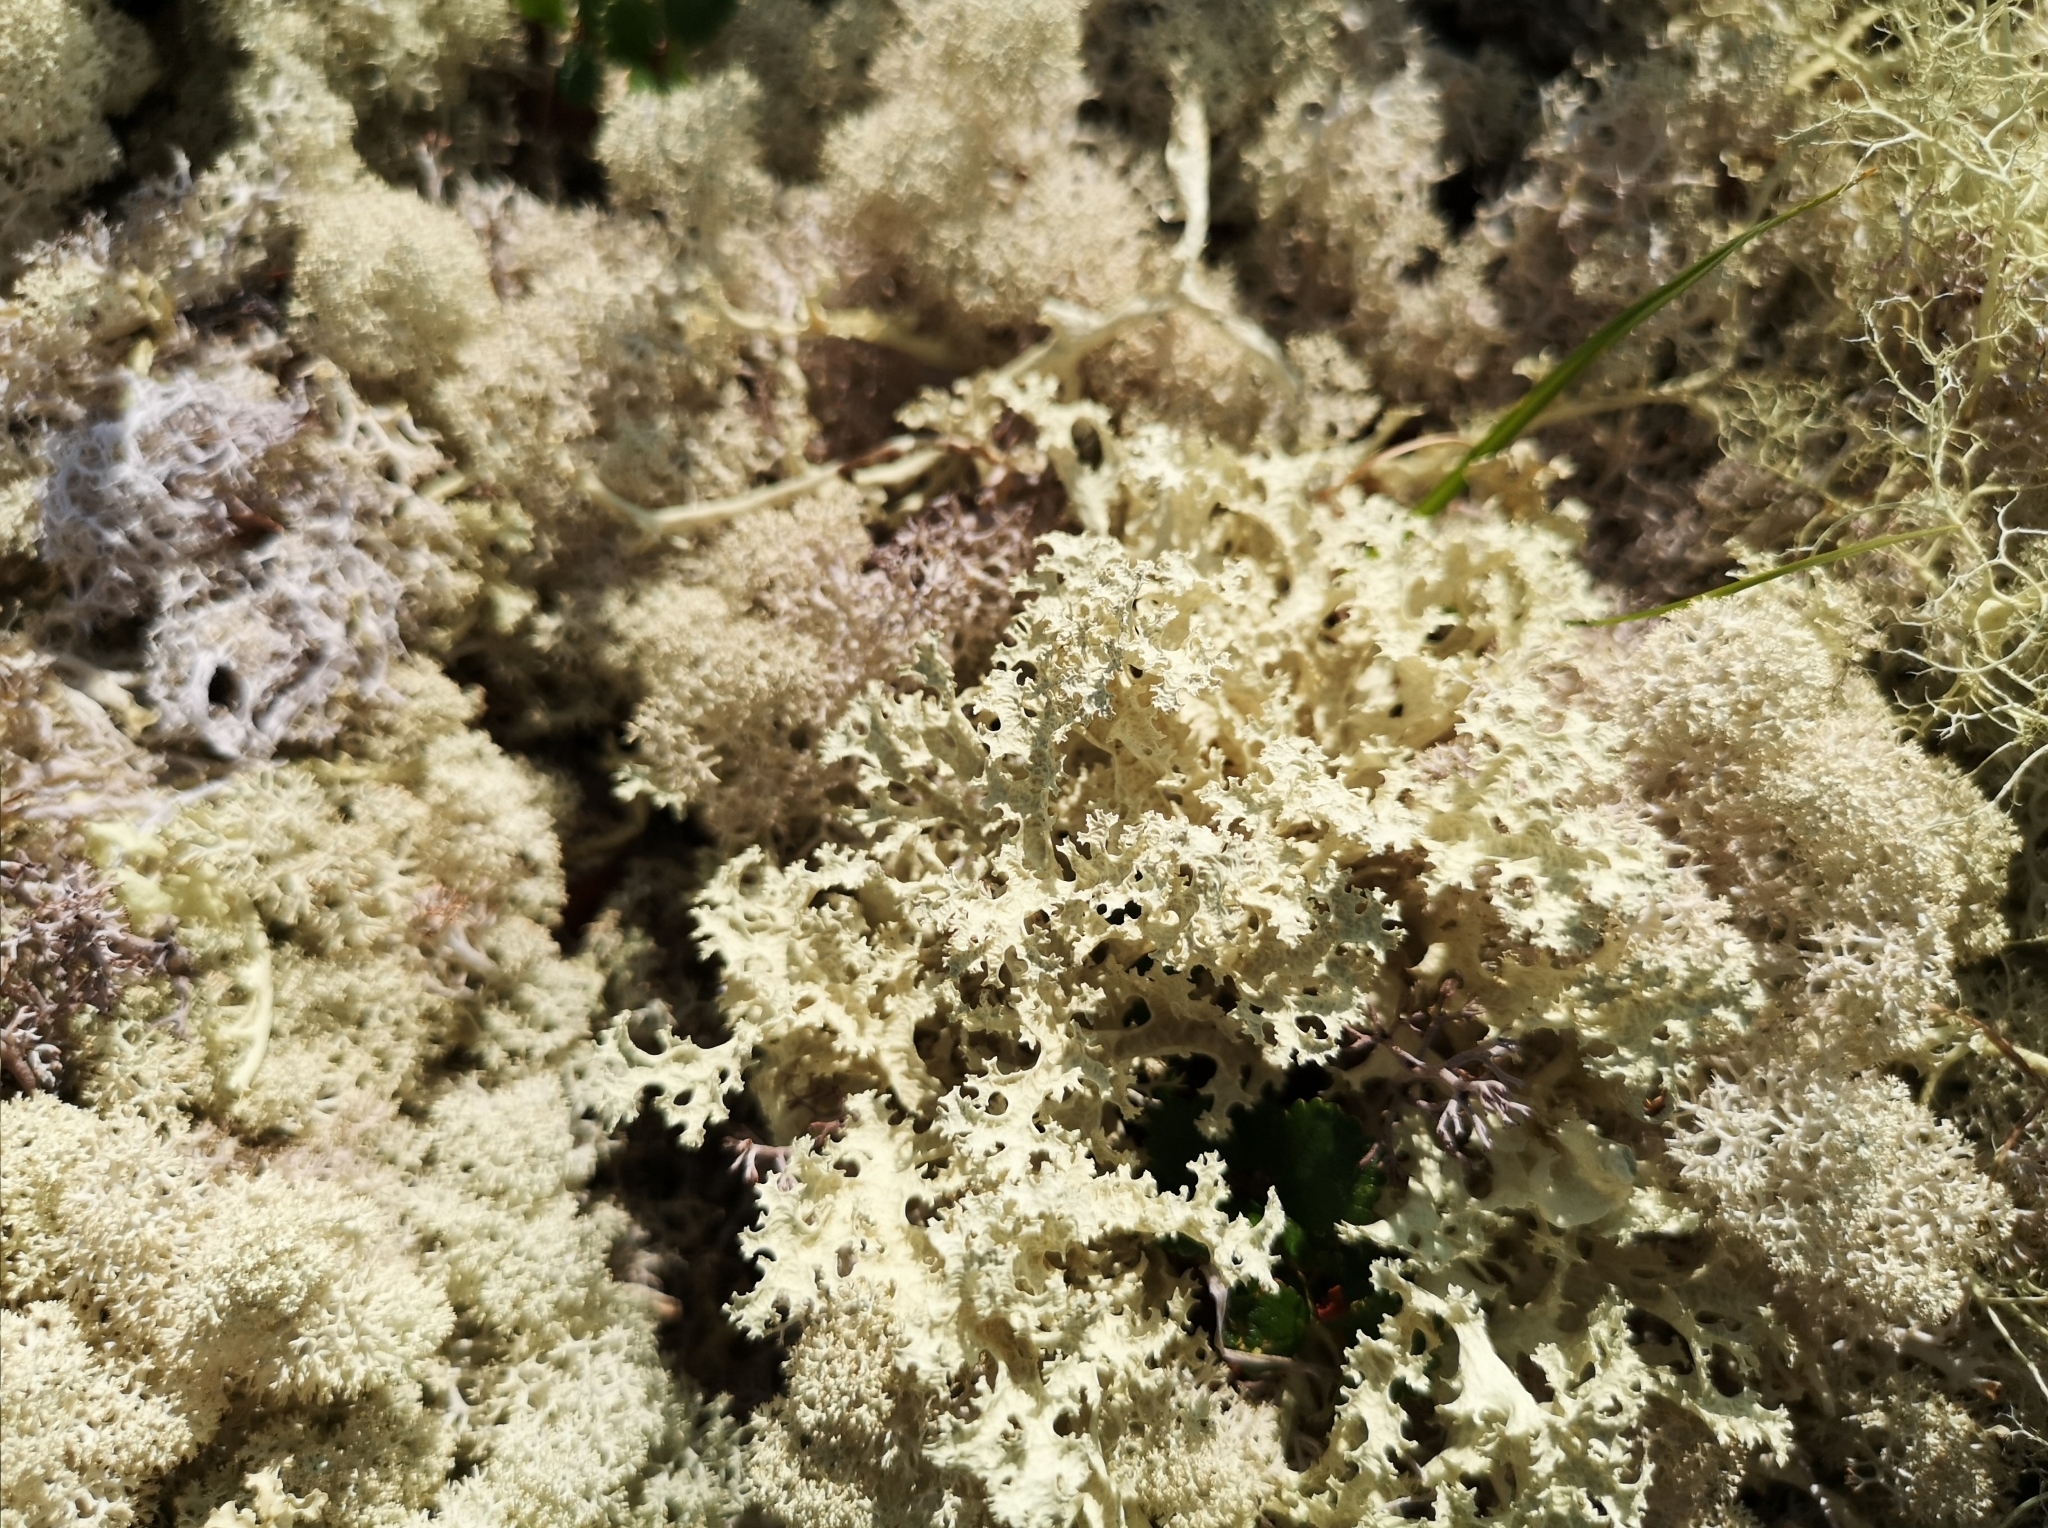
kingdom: Fungi
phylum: Ascomycota
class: Lecanoromycetes
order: Lecanorales
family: Parmeliaceae
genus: Nephromopsis
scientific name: Nephromopsis nivalis
